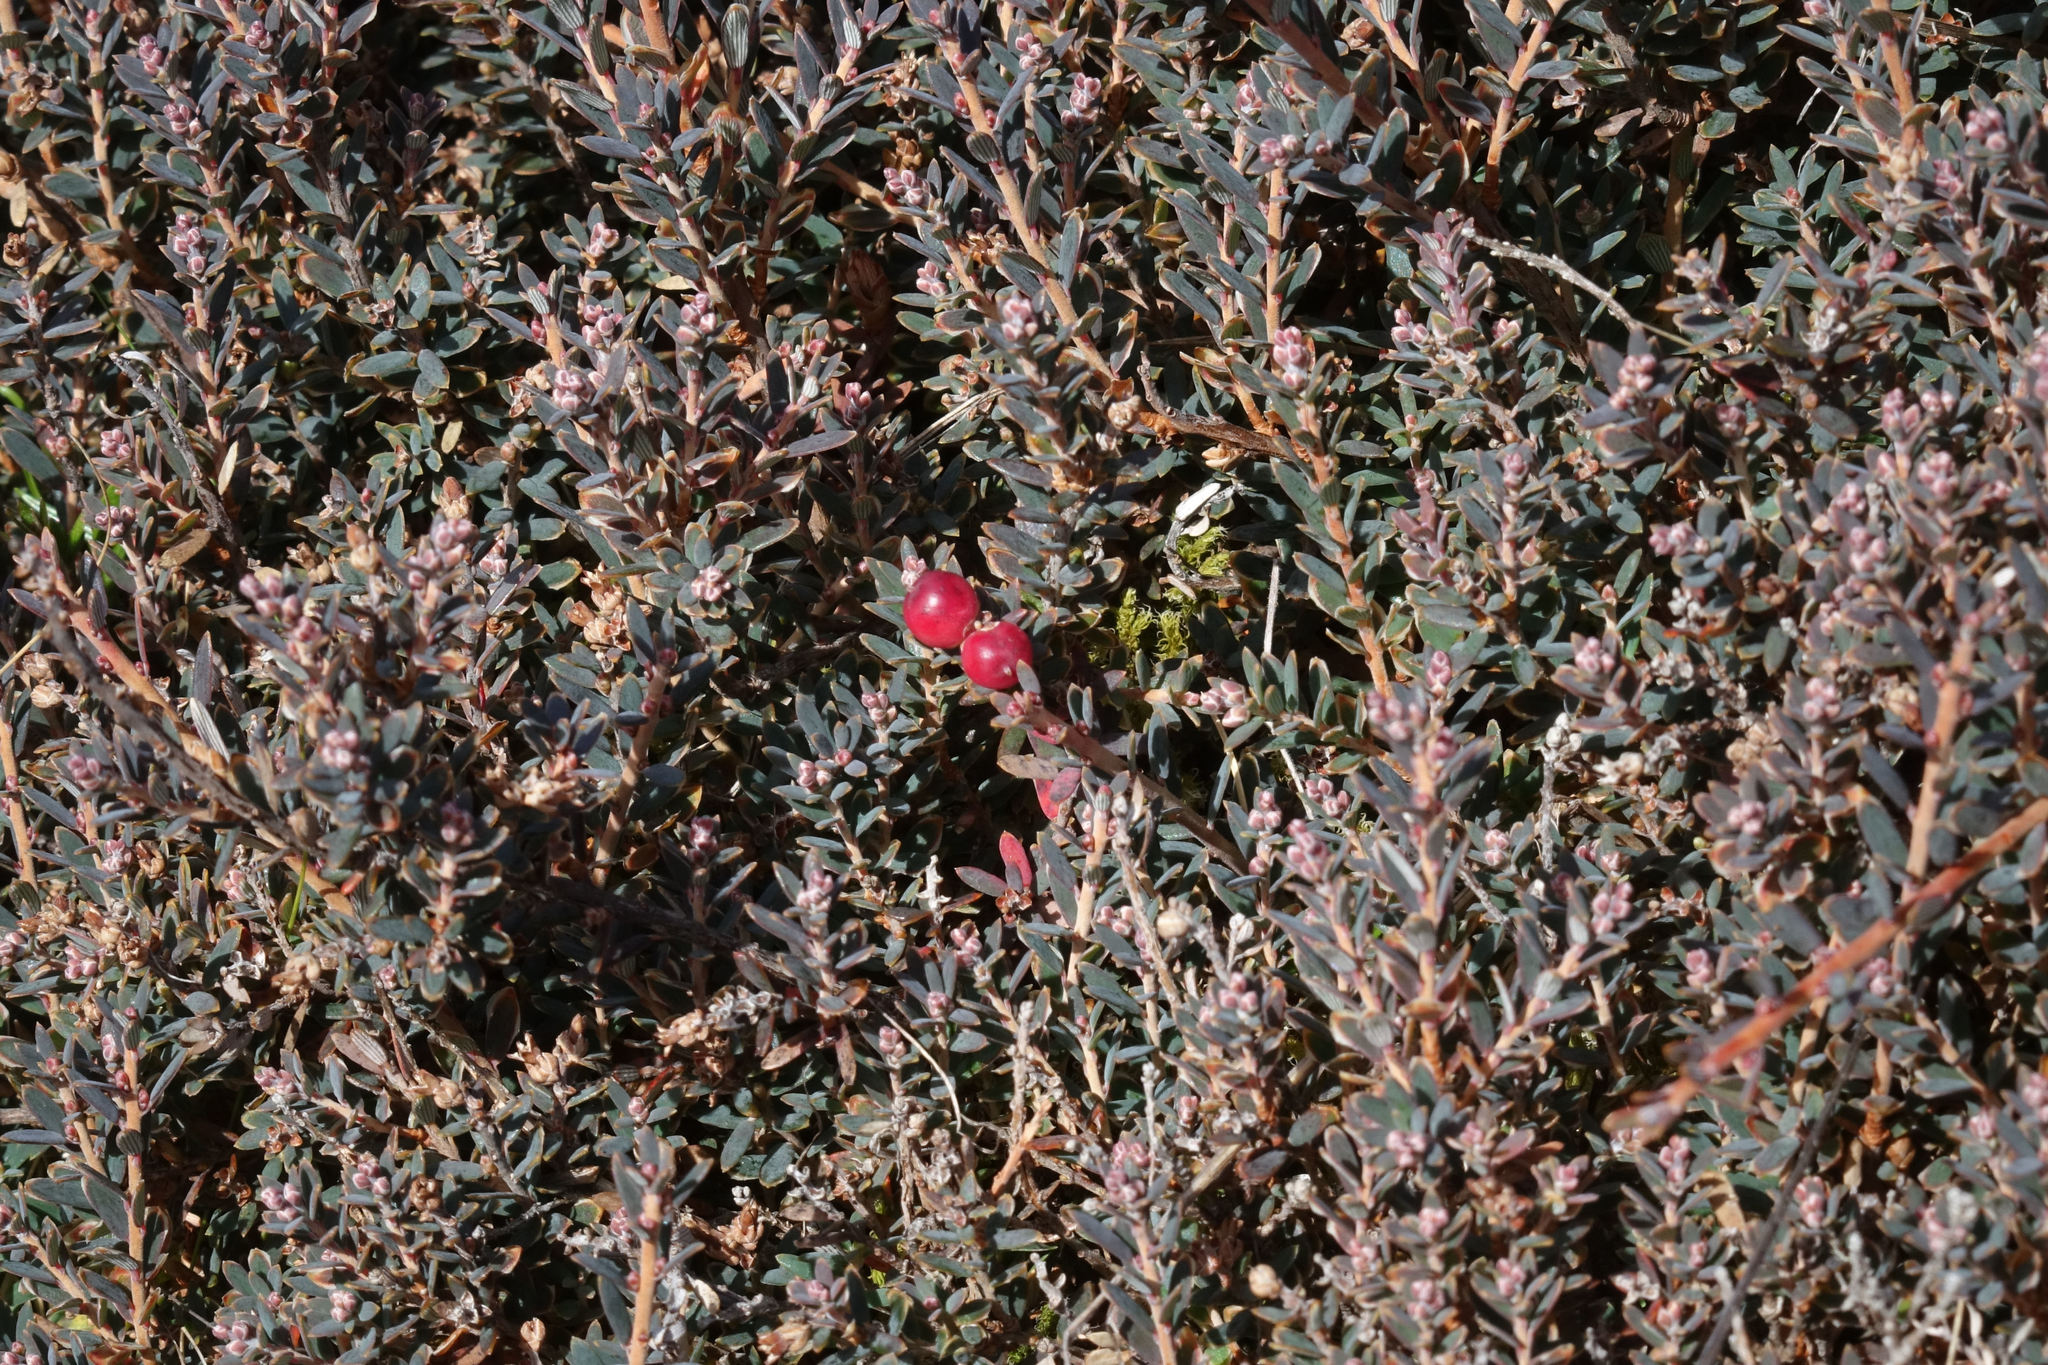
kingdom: Plantae
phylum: Tracheophyta
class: Magnoliopsida
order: Ericales
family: Ericaceae
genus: Acrothamnus
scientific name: Acrothamnus colensoi
